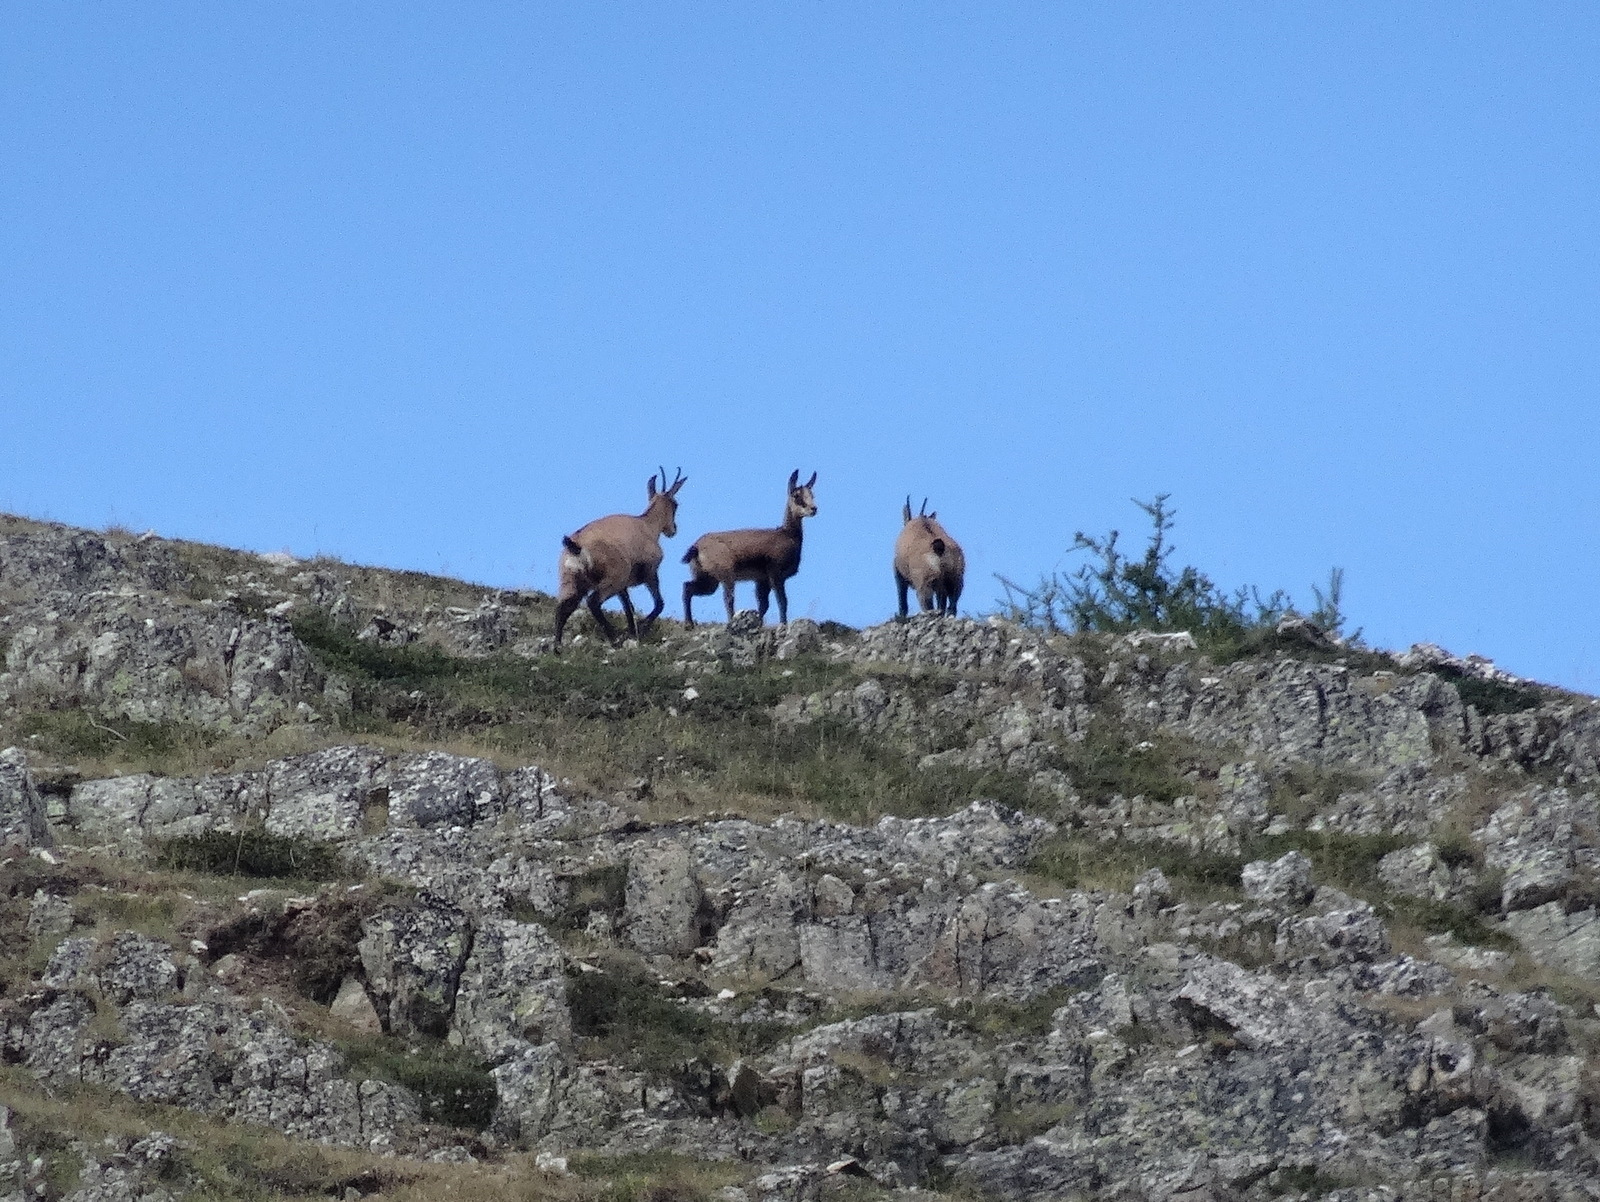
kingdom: Animalia
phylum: Chordata
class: Mammalia
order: Artiodactyla
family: Bovidae
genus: Rupicapra
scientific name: Rupicapra rupicapra
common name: Chamois
